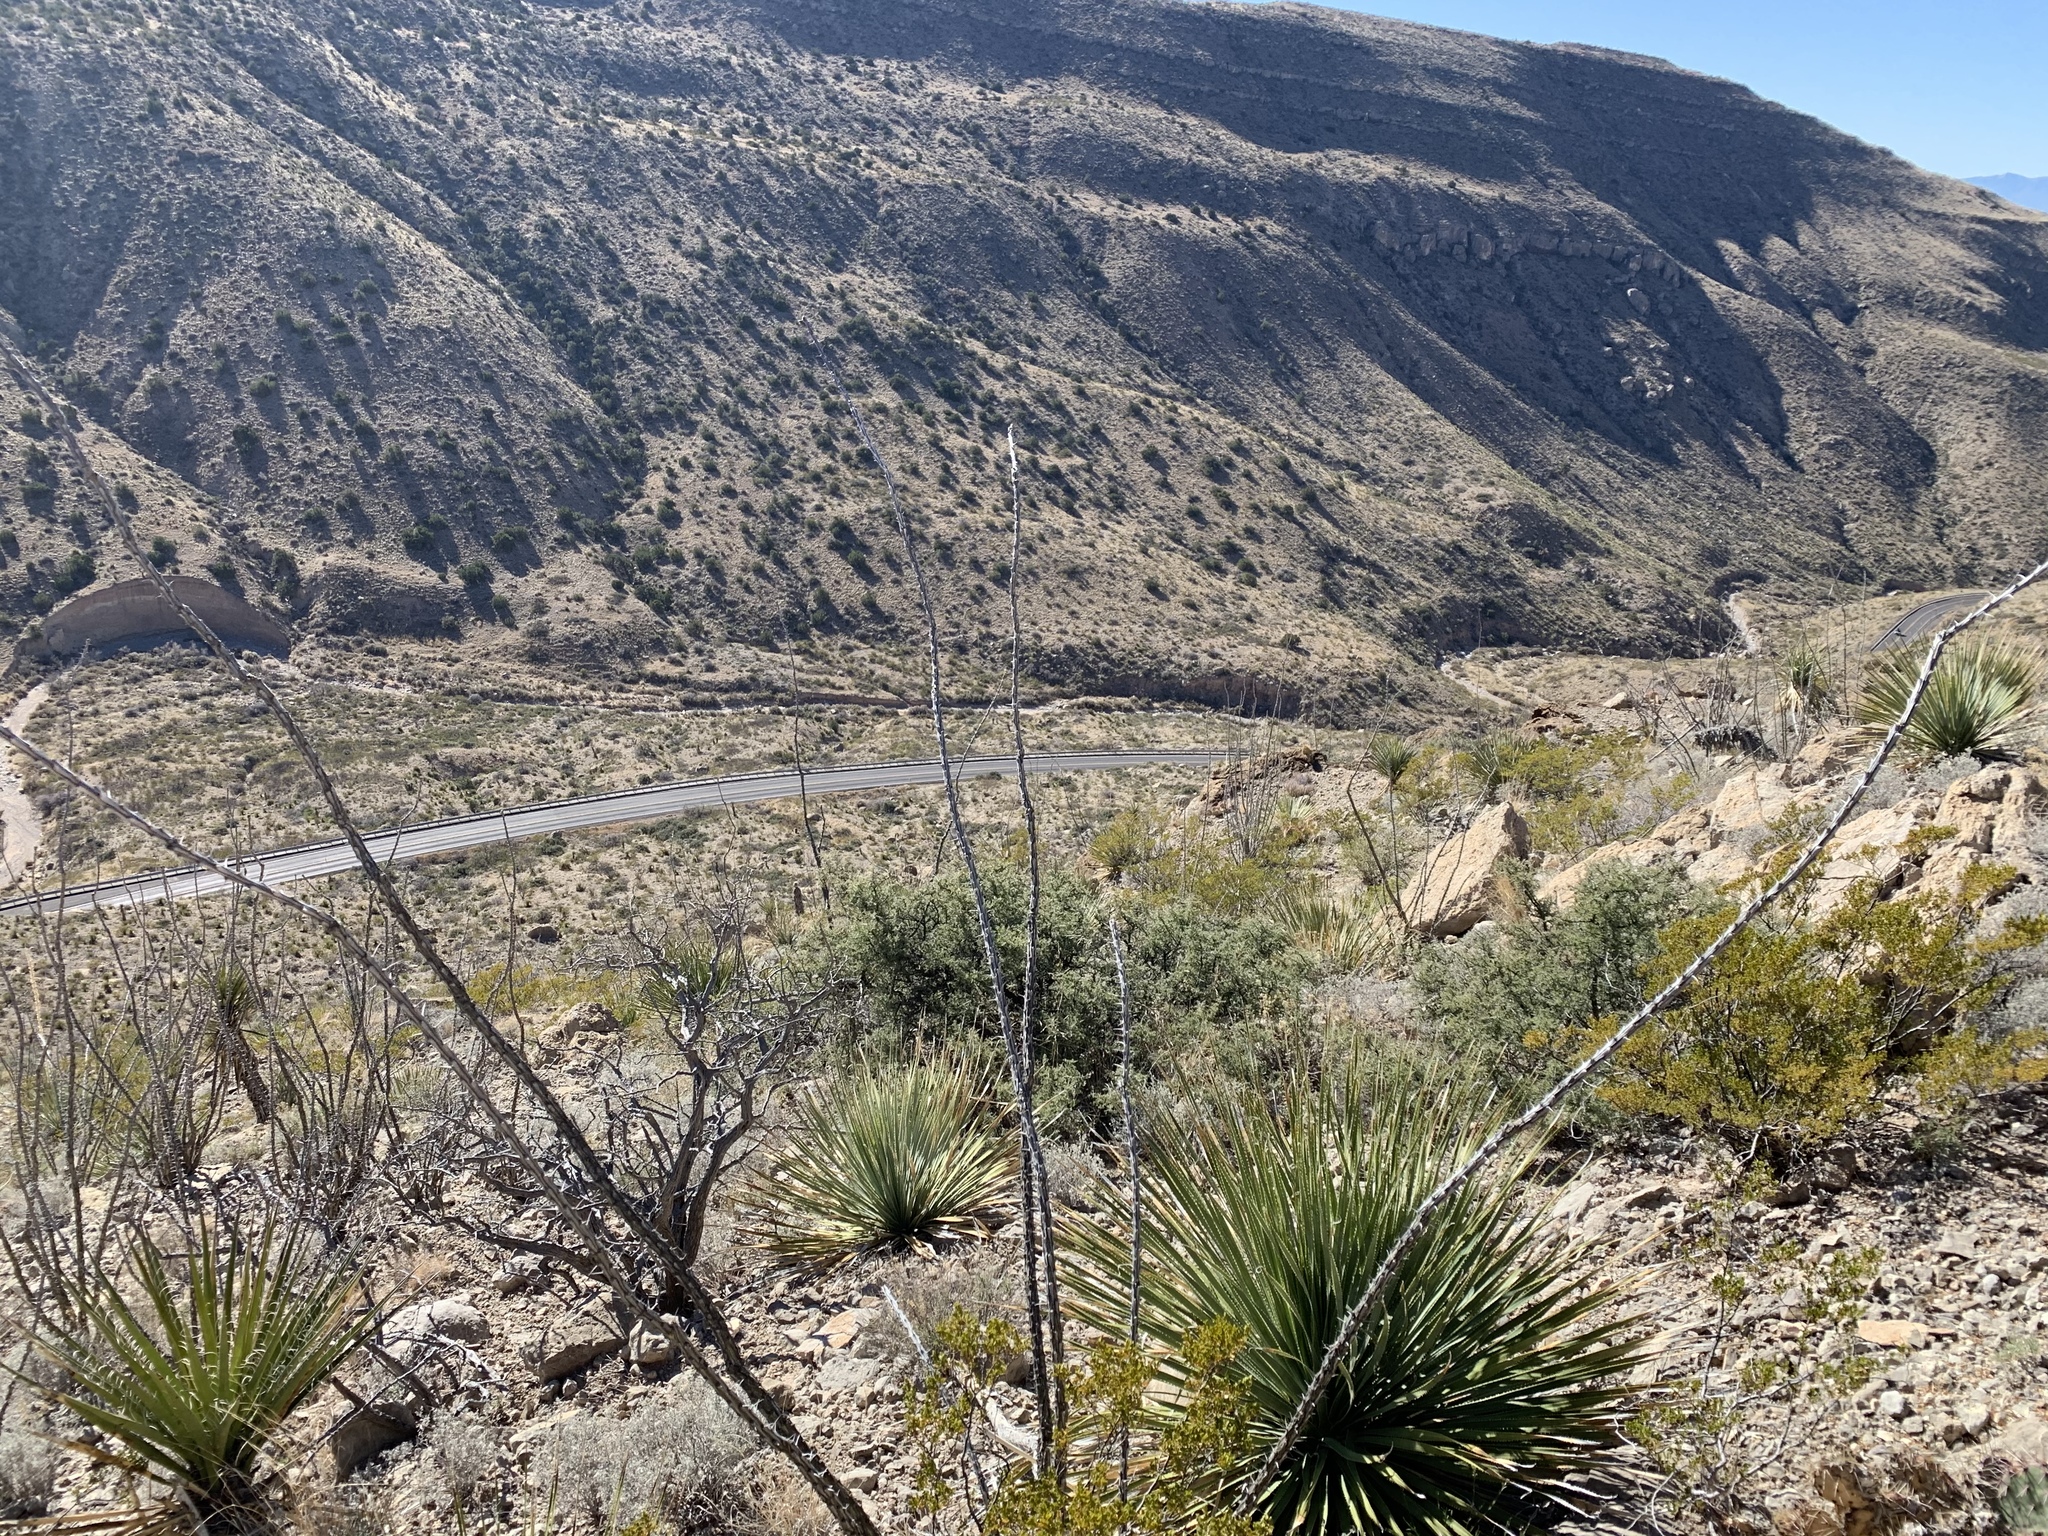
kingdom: Plantae
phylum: Tracheophyta
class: Magnoliopsida
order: Ericales
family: Fouquieriaceae
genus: Fouquieria
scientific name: Fouquieria splendens
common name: Vine-cactus
